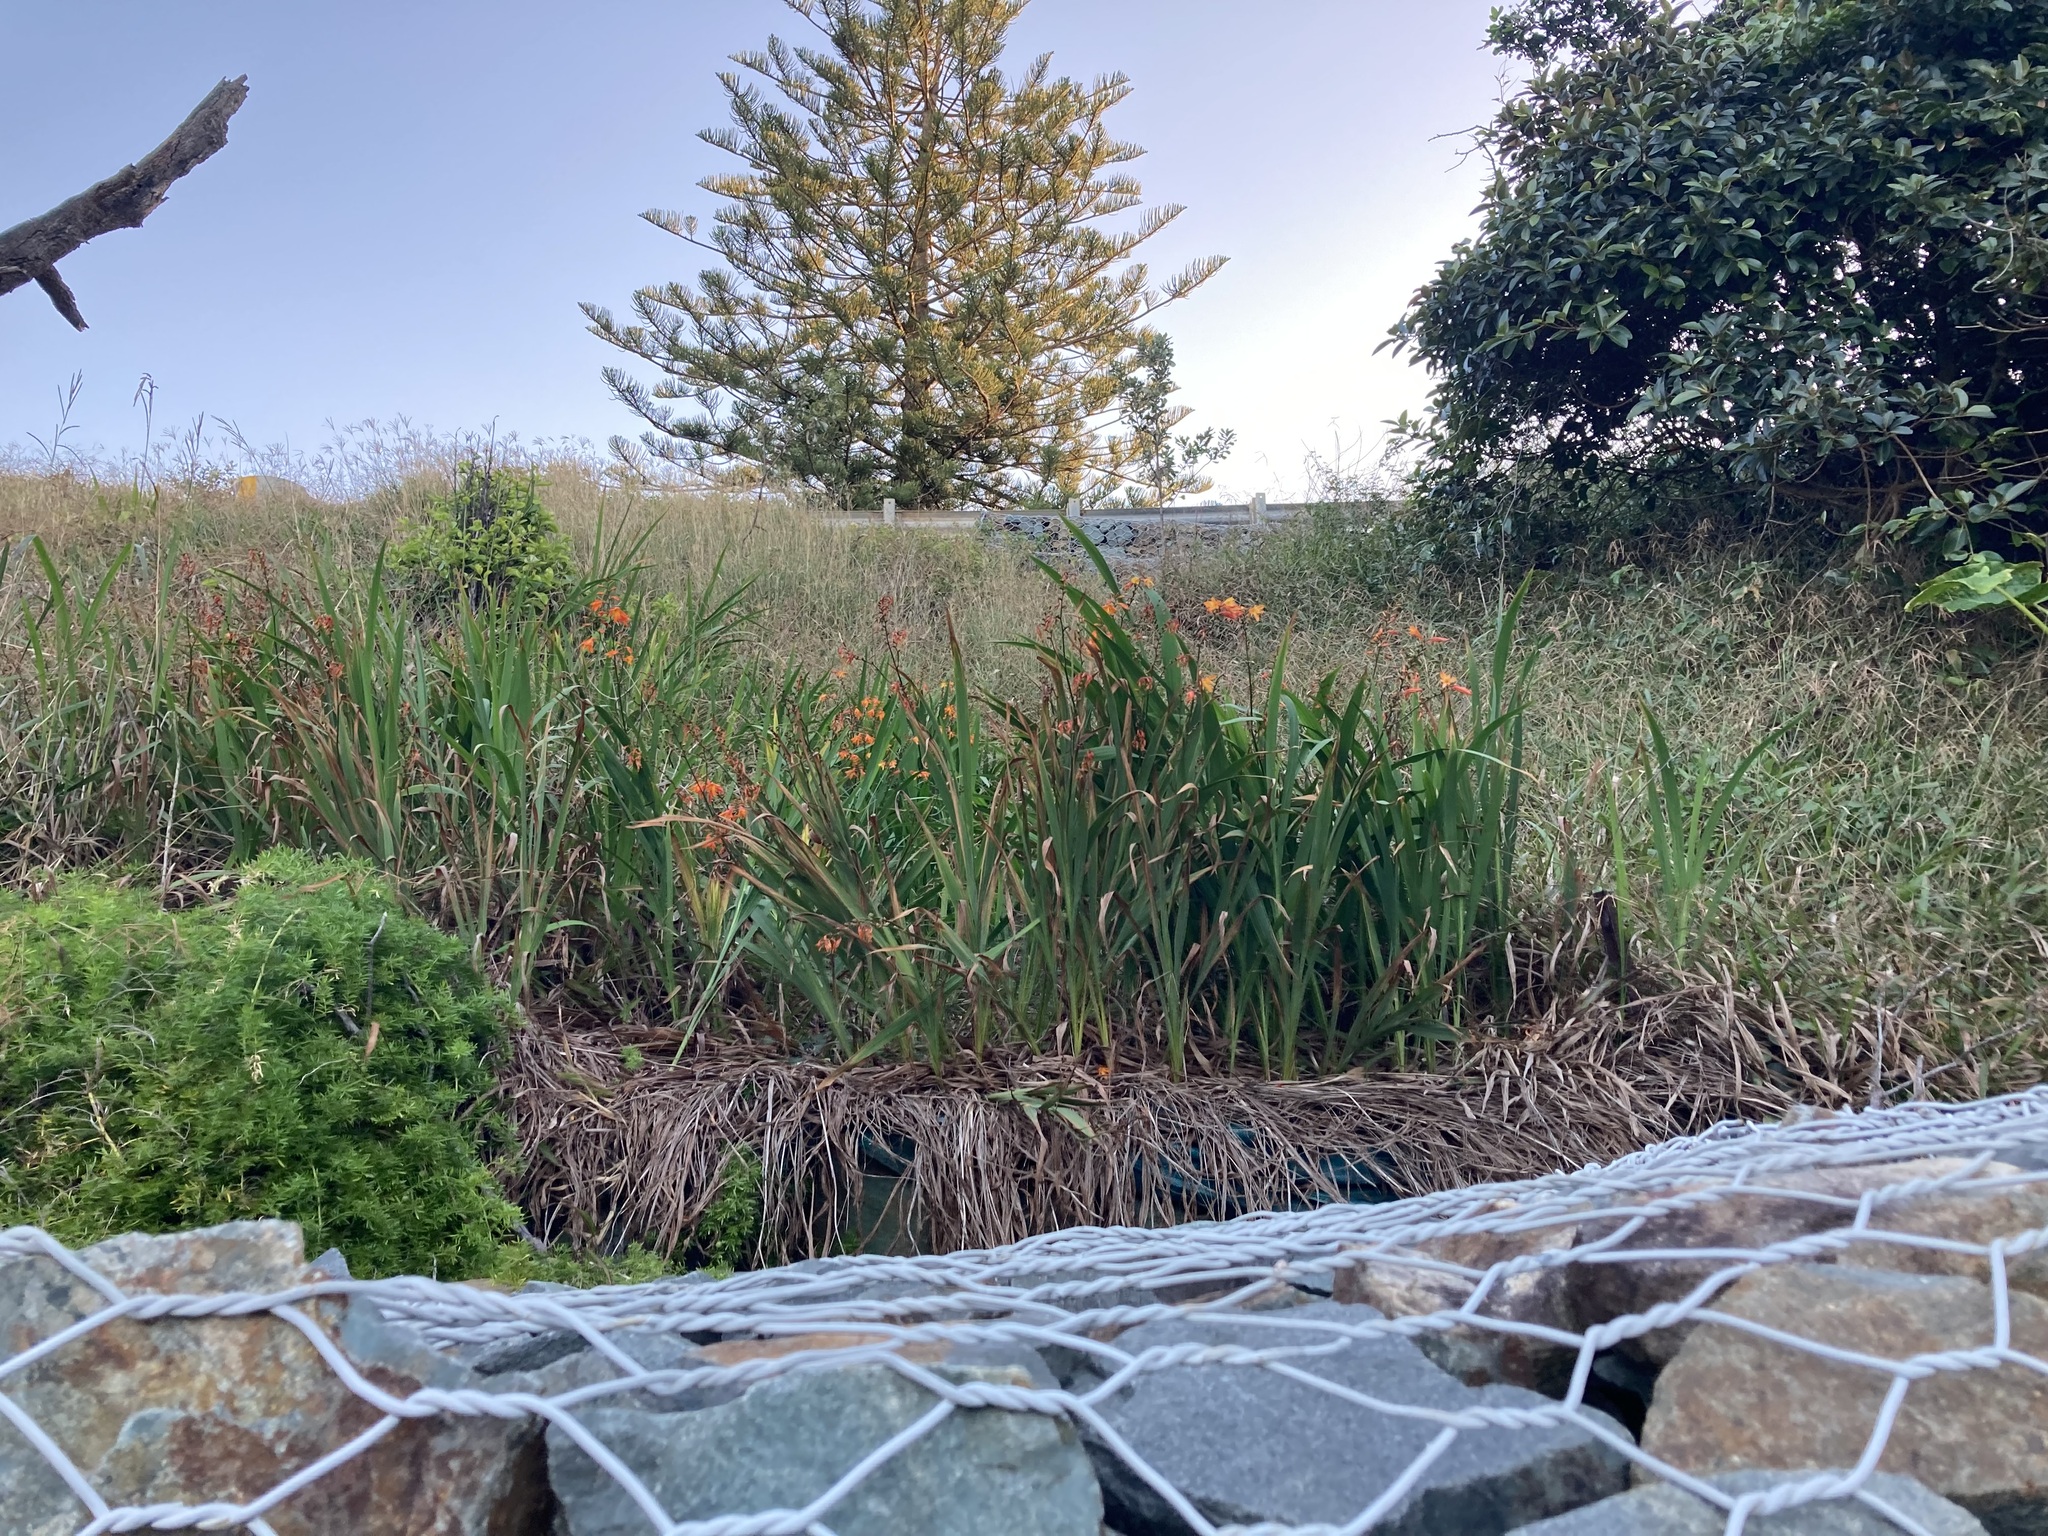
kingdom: Plantae
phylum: Tracheophyta
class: Liliopsida
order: Asparagales
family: Iridaceae
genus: Crocosmia
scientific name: Crocosmia crocosmiiflora
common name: Montbretia
